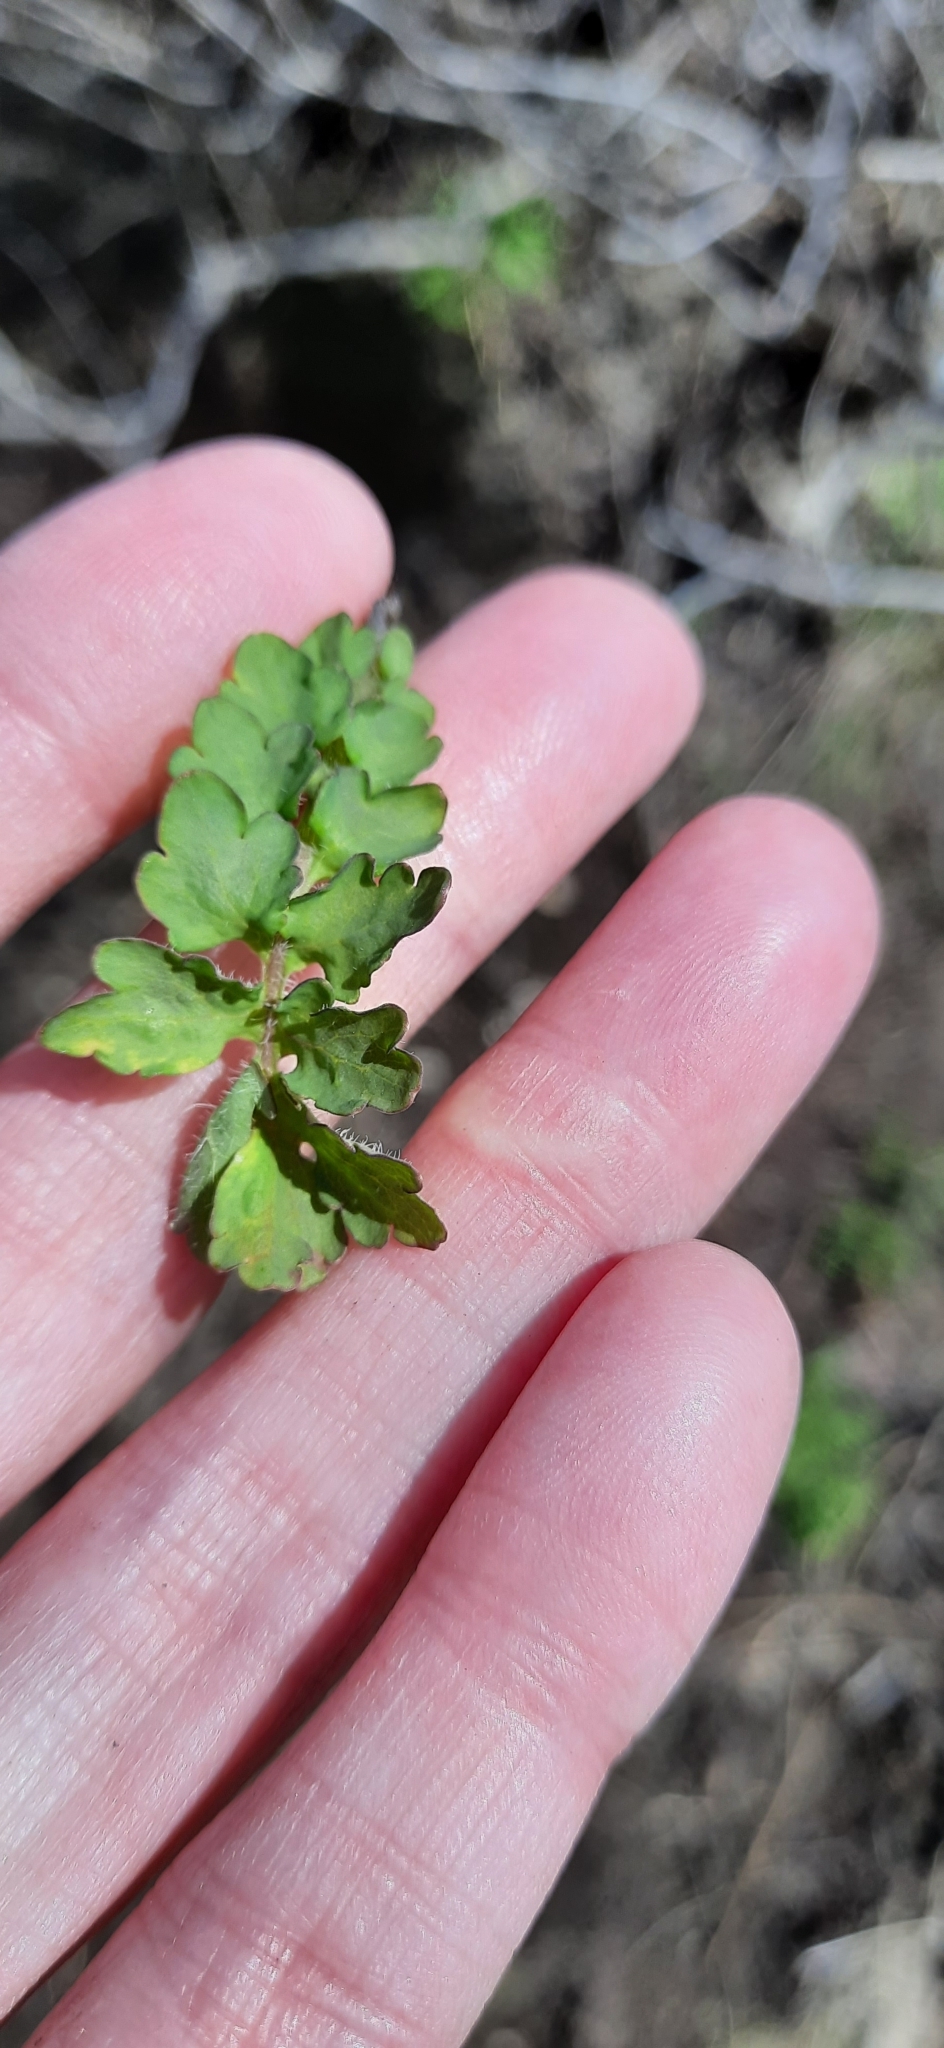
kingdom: Plantae
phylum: Tracheophyta
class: Magnoliopsida
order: Ranunculales
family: Papaveraceae
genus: Chelidonium
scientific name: Chelidonium majus
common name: Greater celandine
